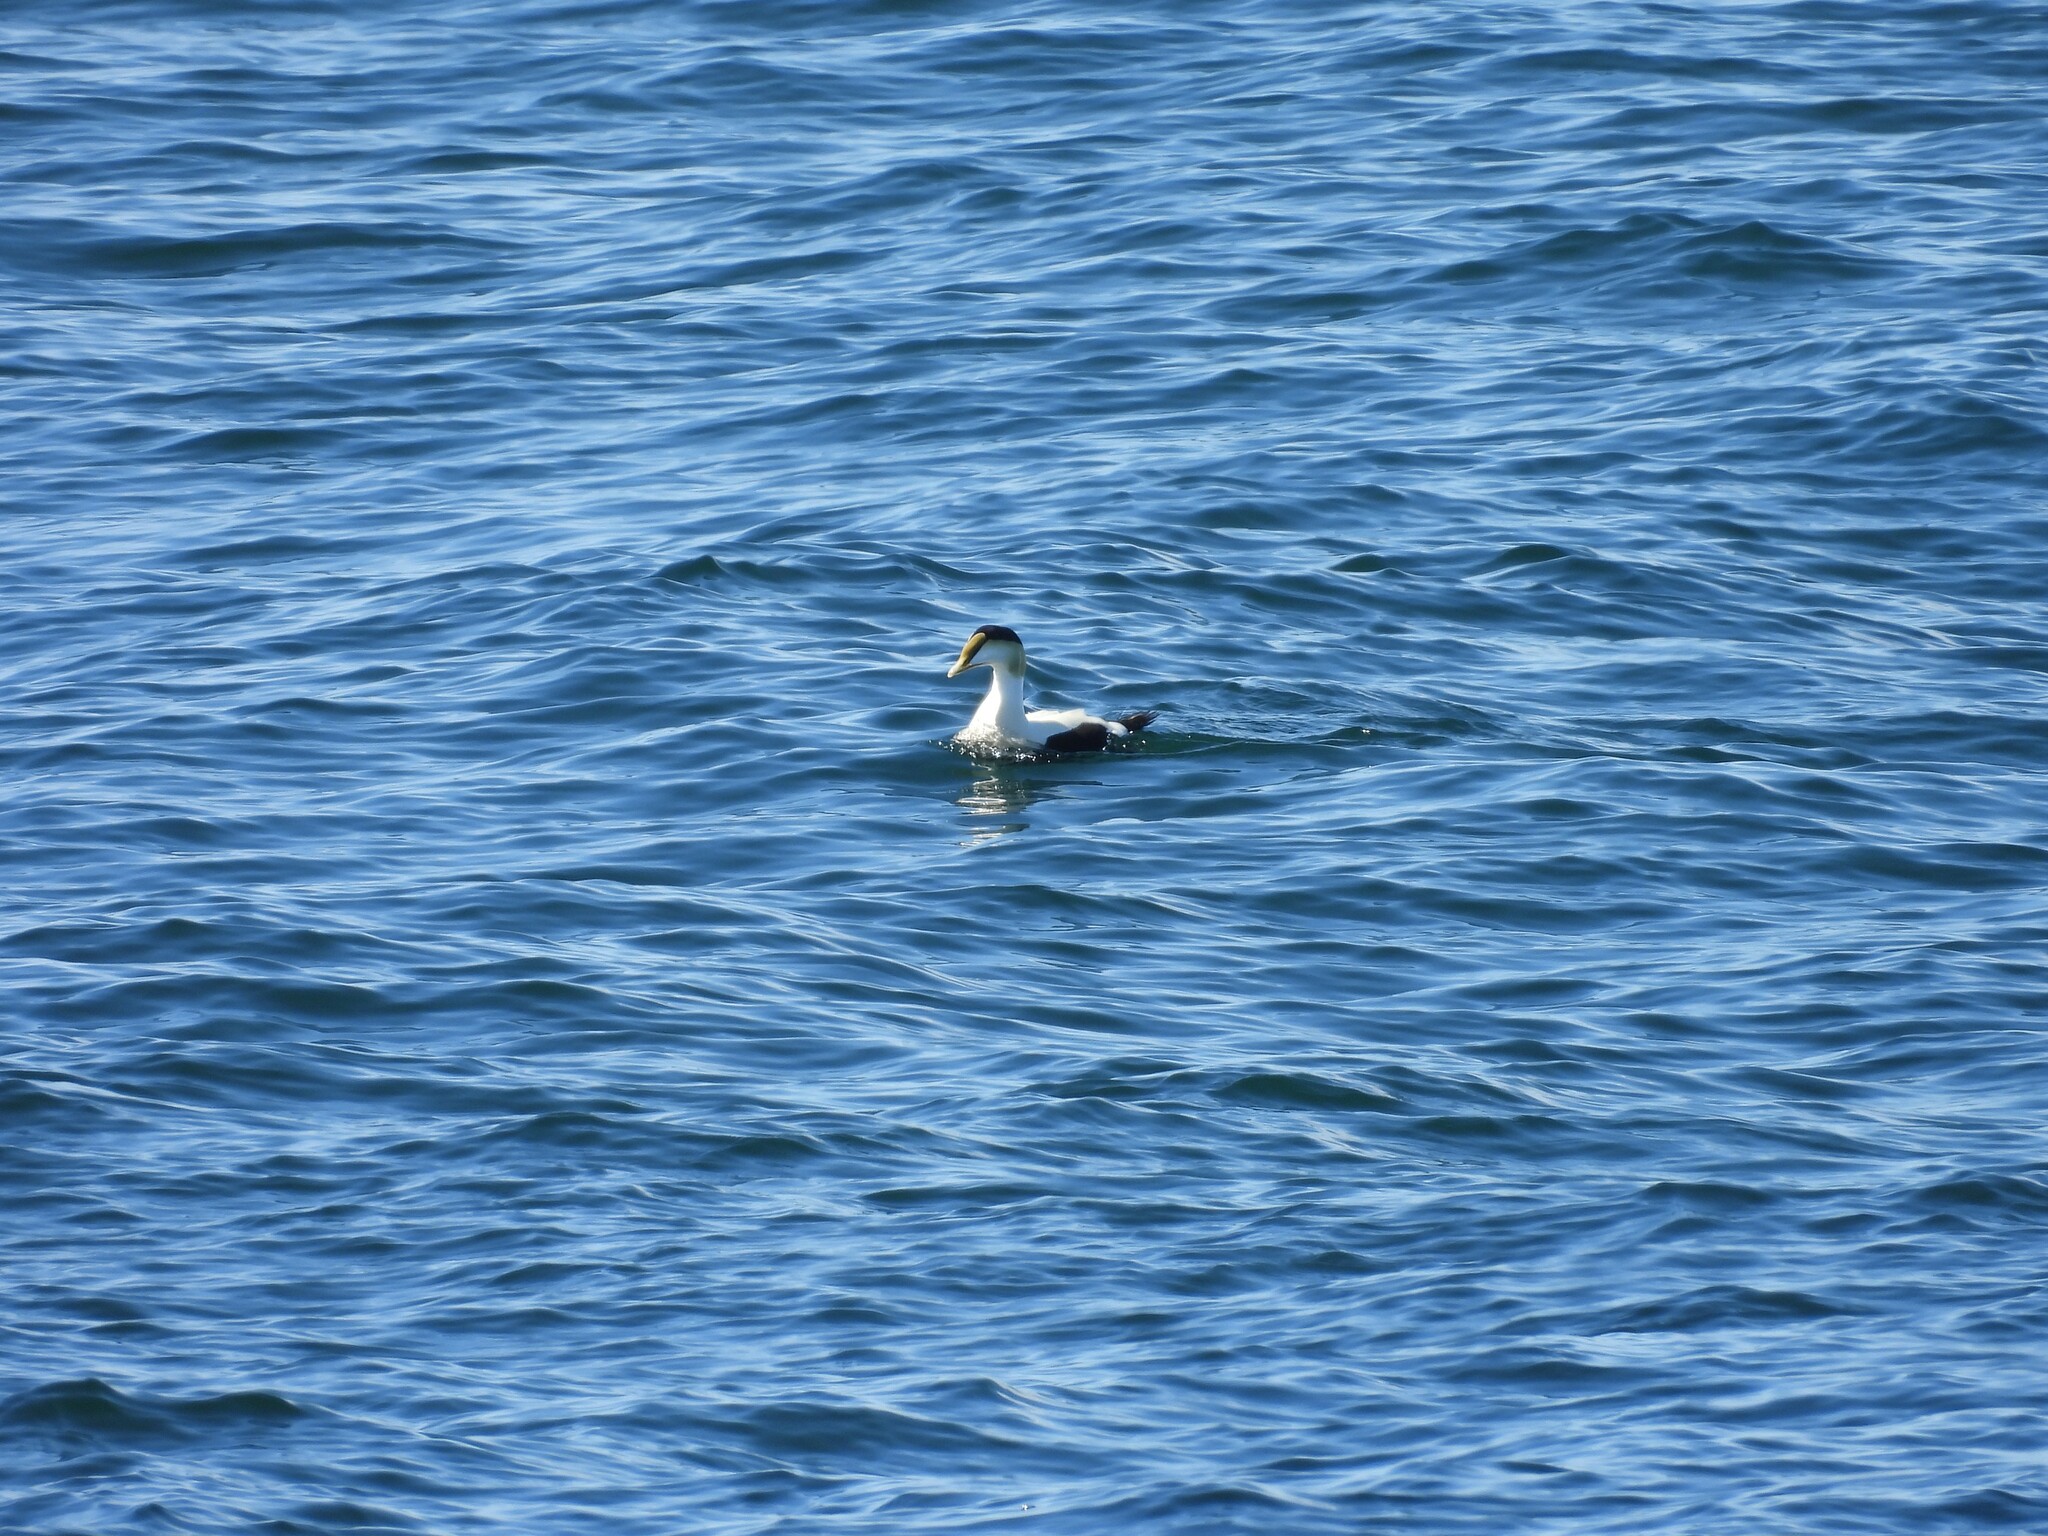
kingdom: Animalia
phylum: Chordata
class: Aves
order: Anseriformes
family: Anatidae
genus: Somateria
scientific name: Somateria mollissima
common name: Common eider
